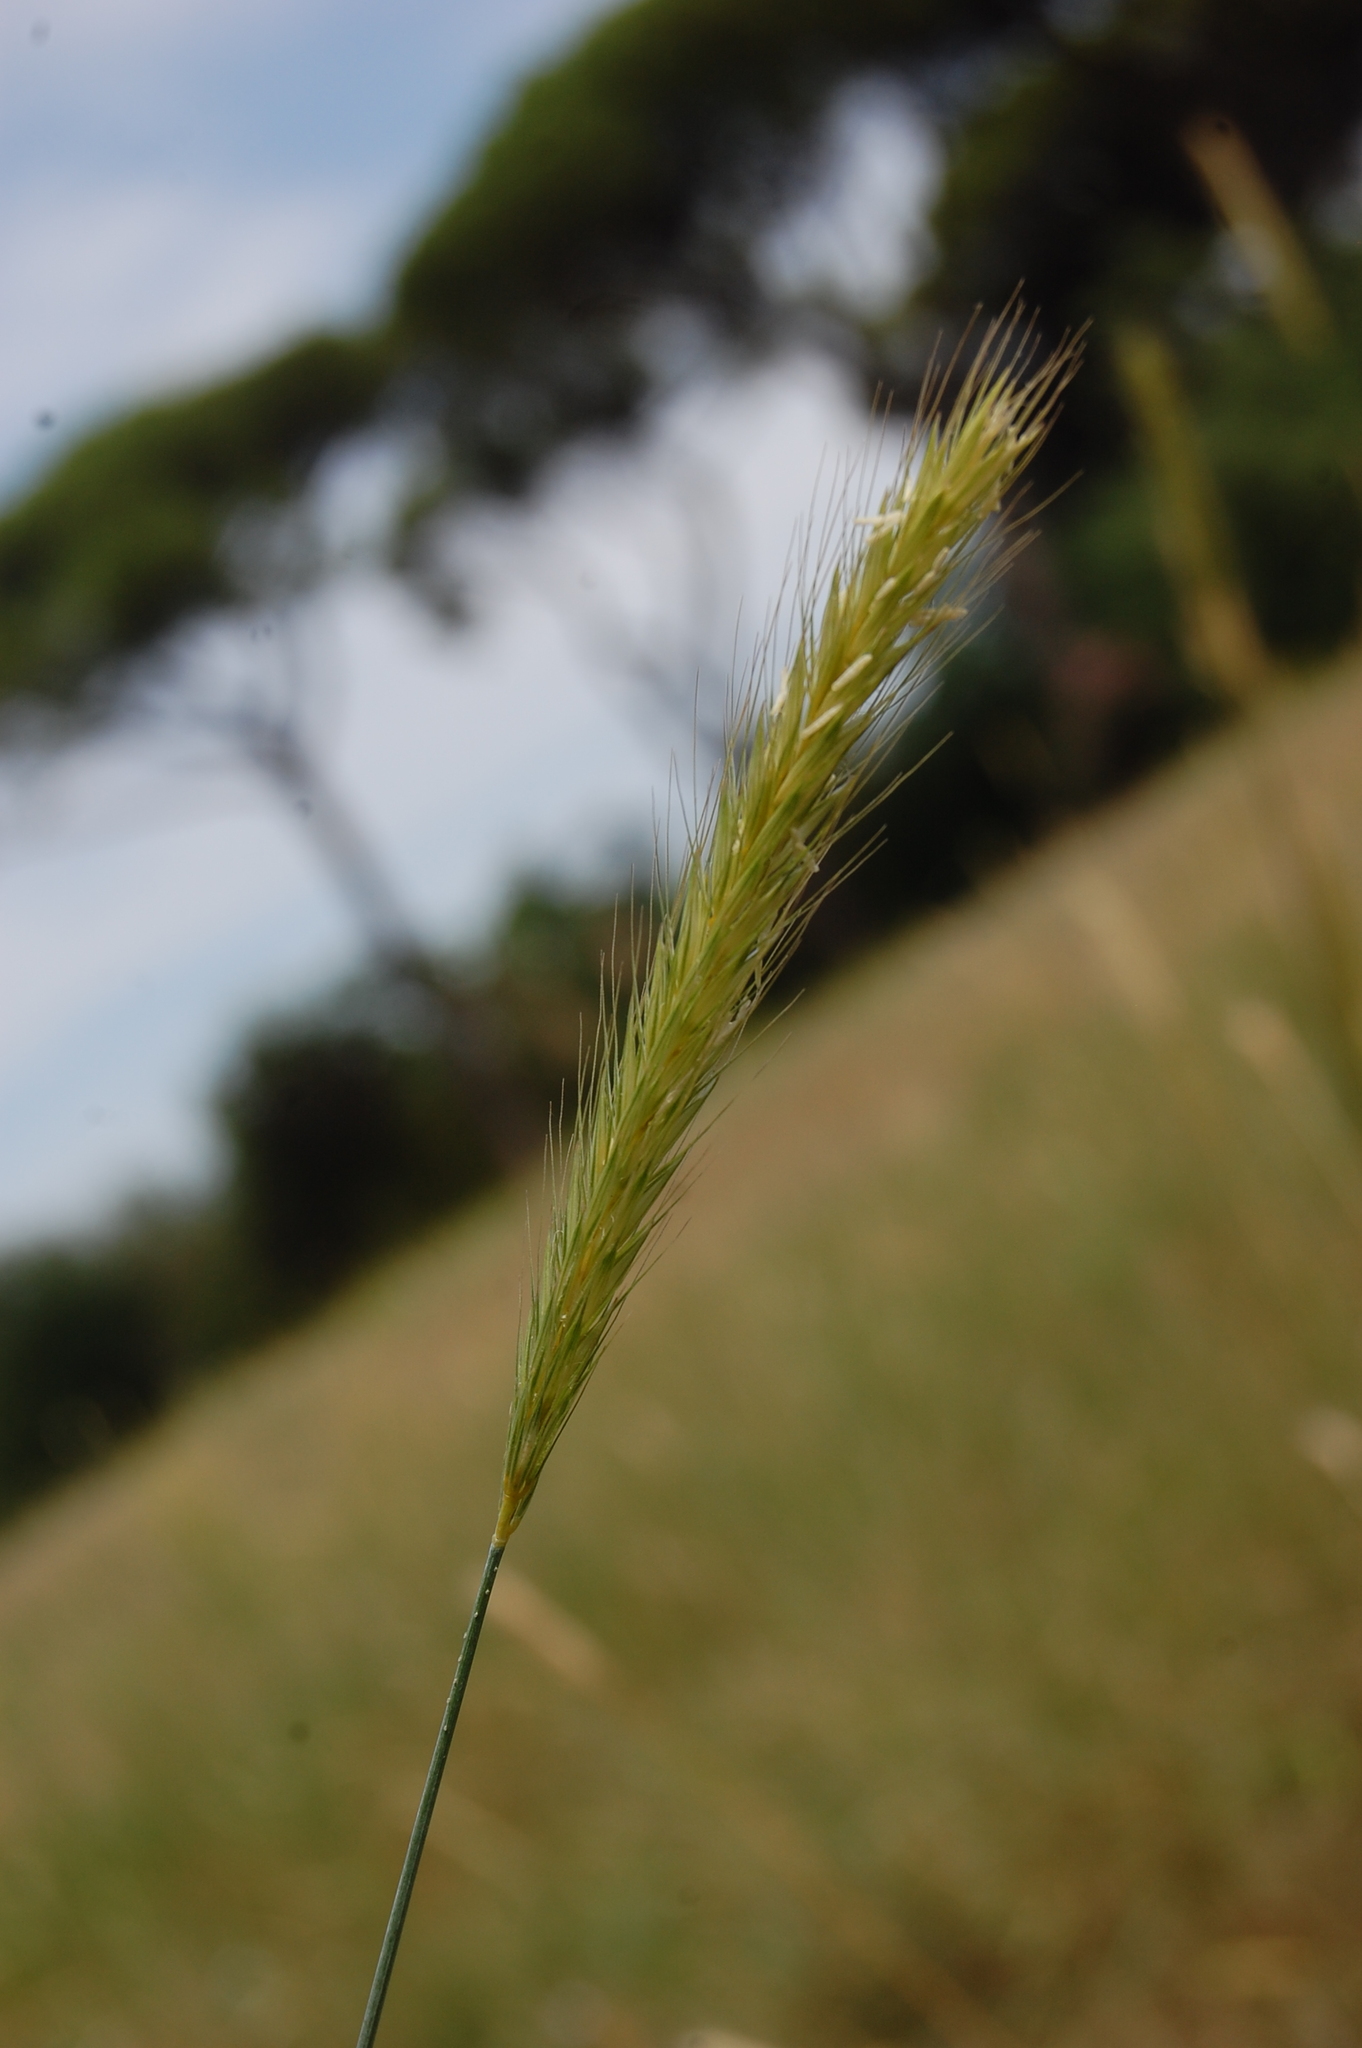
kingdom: Plantae
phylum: Tracheophyta
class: Liliopsida
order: Poales
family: Poaceae
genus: Hordeum
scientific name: Hordeum bulbosum
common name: Bulbous barley
